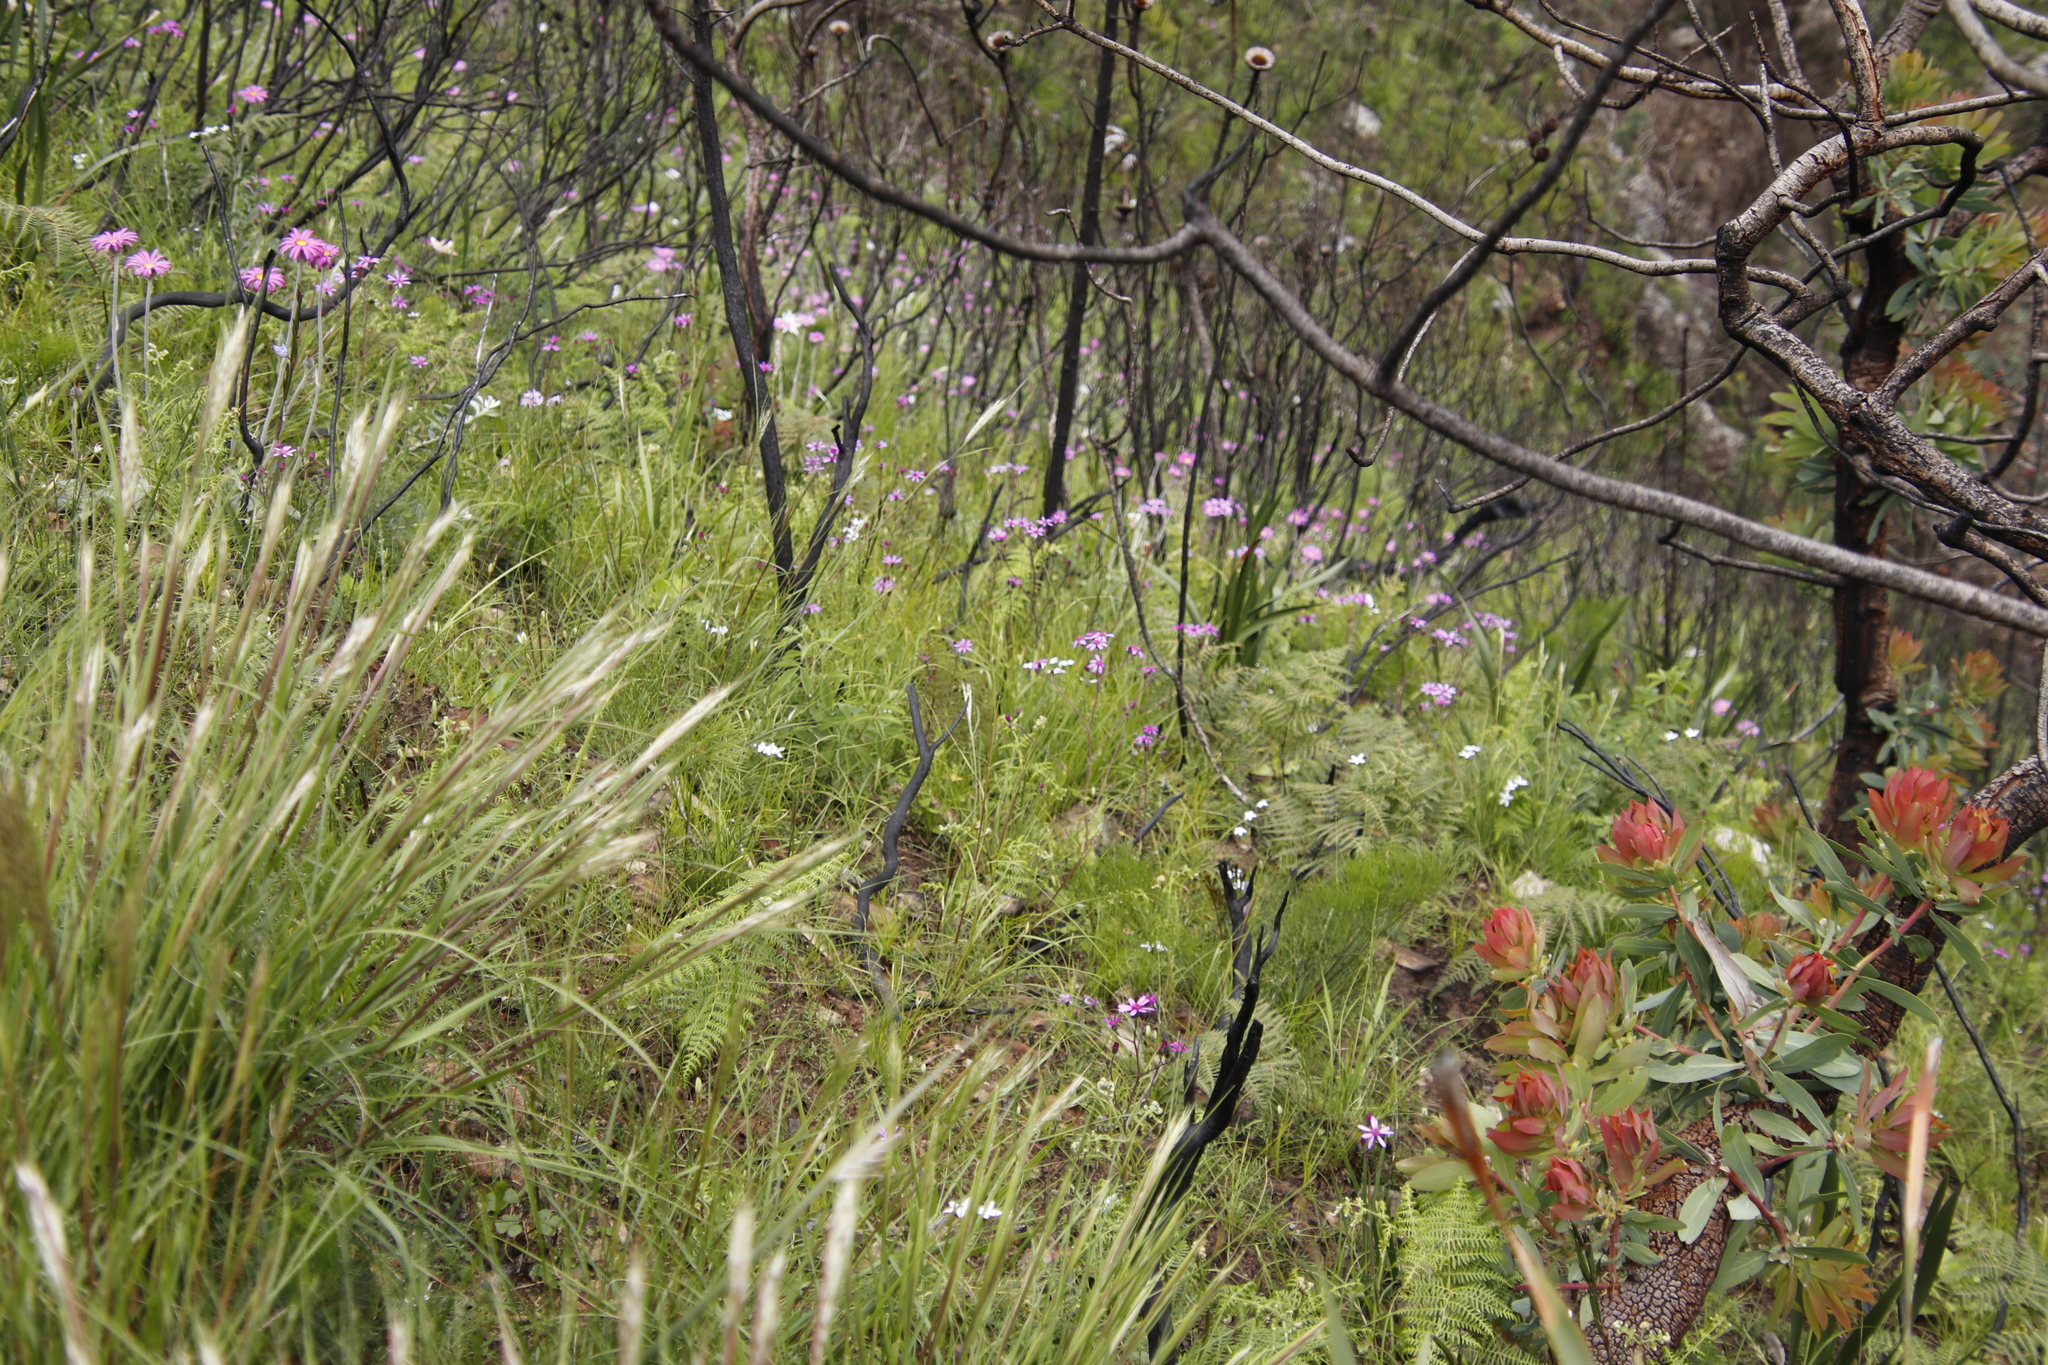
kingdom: Plantae
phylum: Tracheophyta
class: Magnoliopsida
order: Asterales
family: Asteraceae
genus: Senecio
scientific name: Senecio cymbalariifolius
